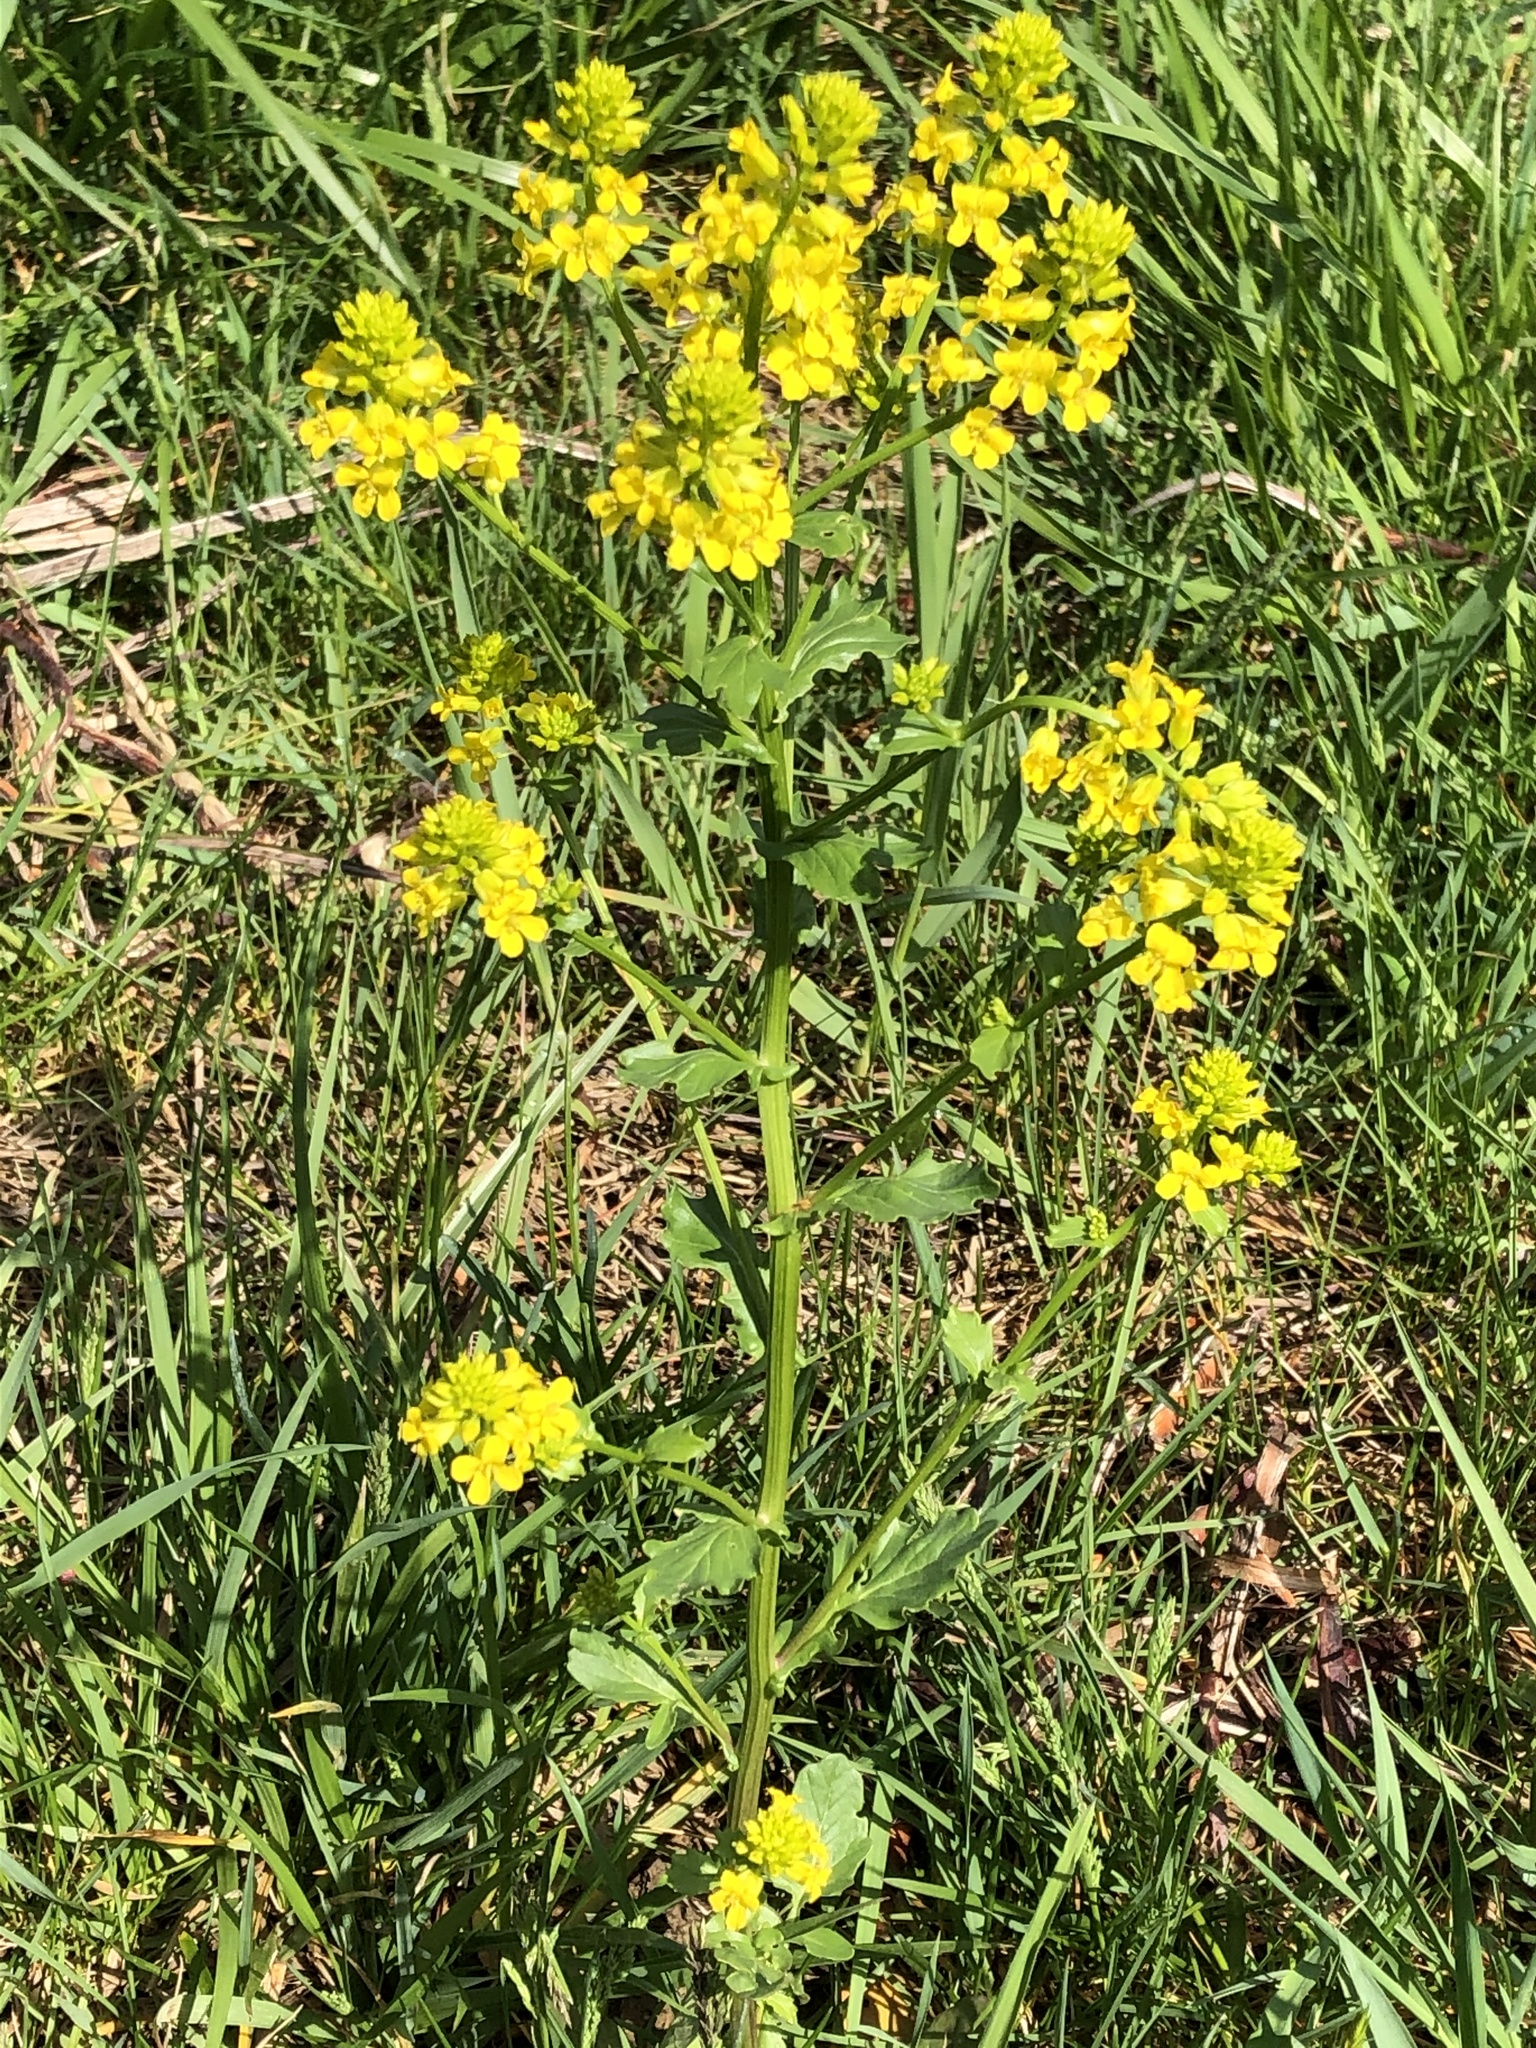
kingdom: Plantae
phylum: Tracheophyta
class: Magnoliopsida
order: Brassicales
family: Brassicaceae
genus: Barbarea
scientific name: Barbarea vulgaris
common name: Cressy-greens
